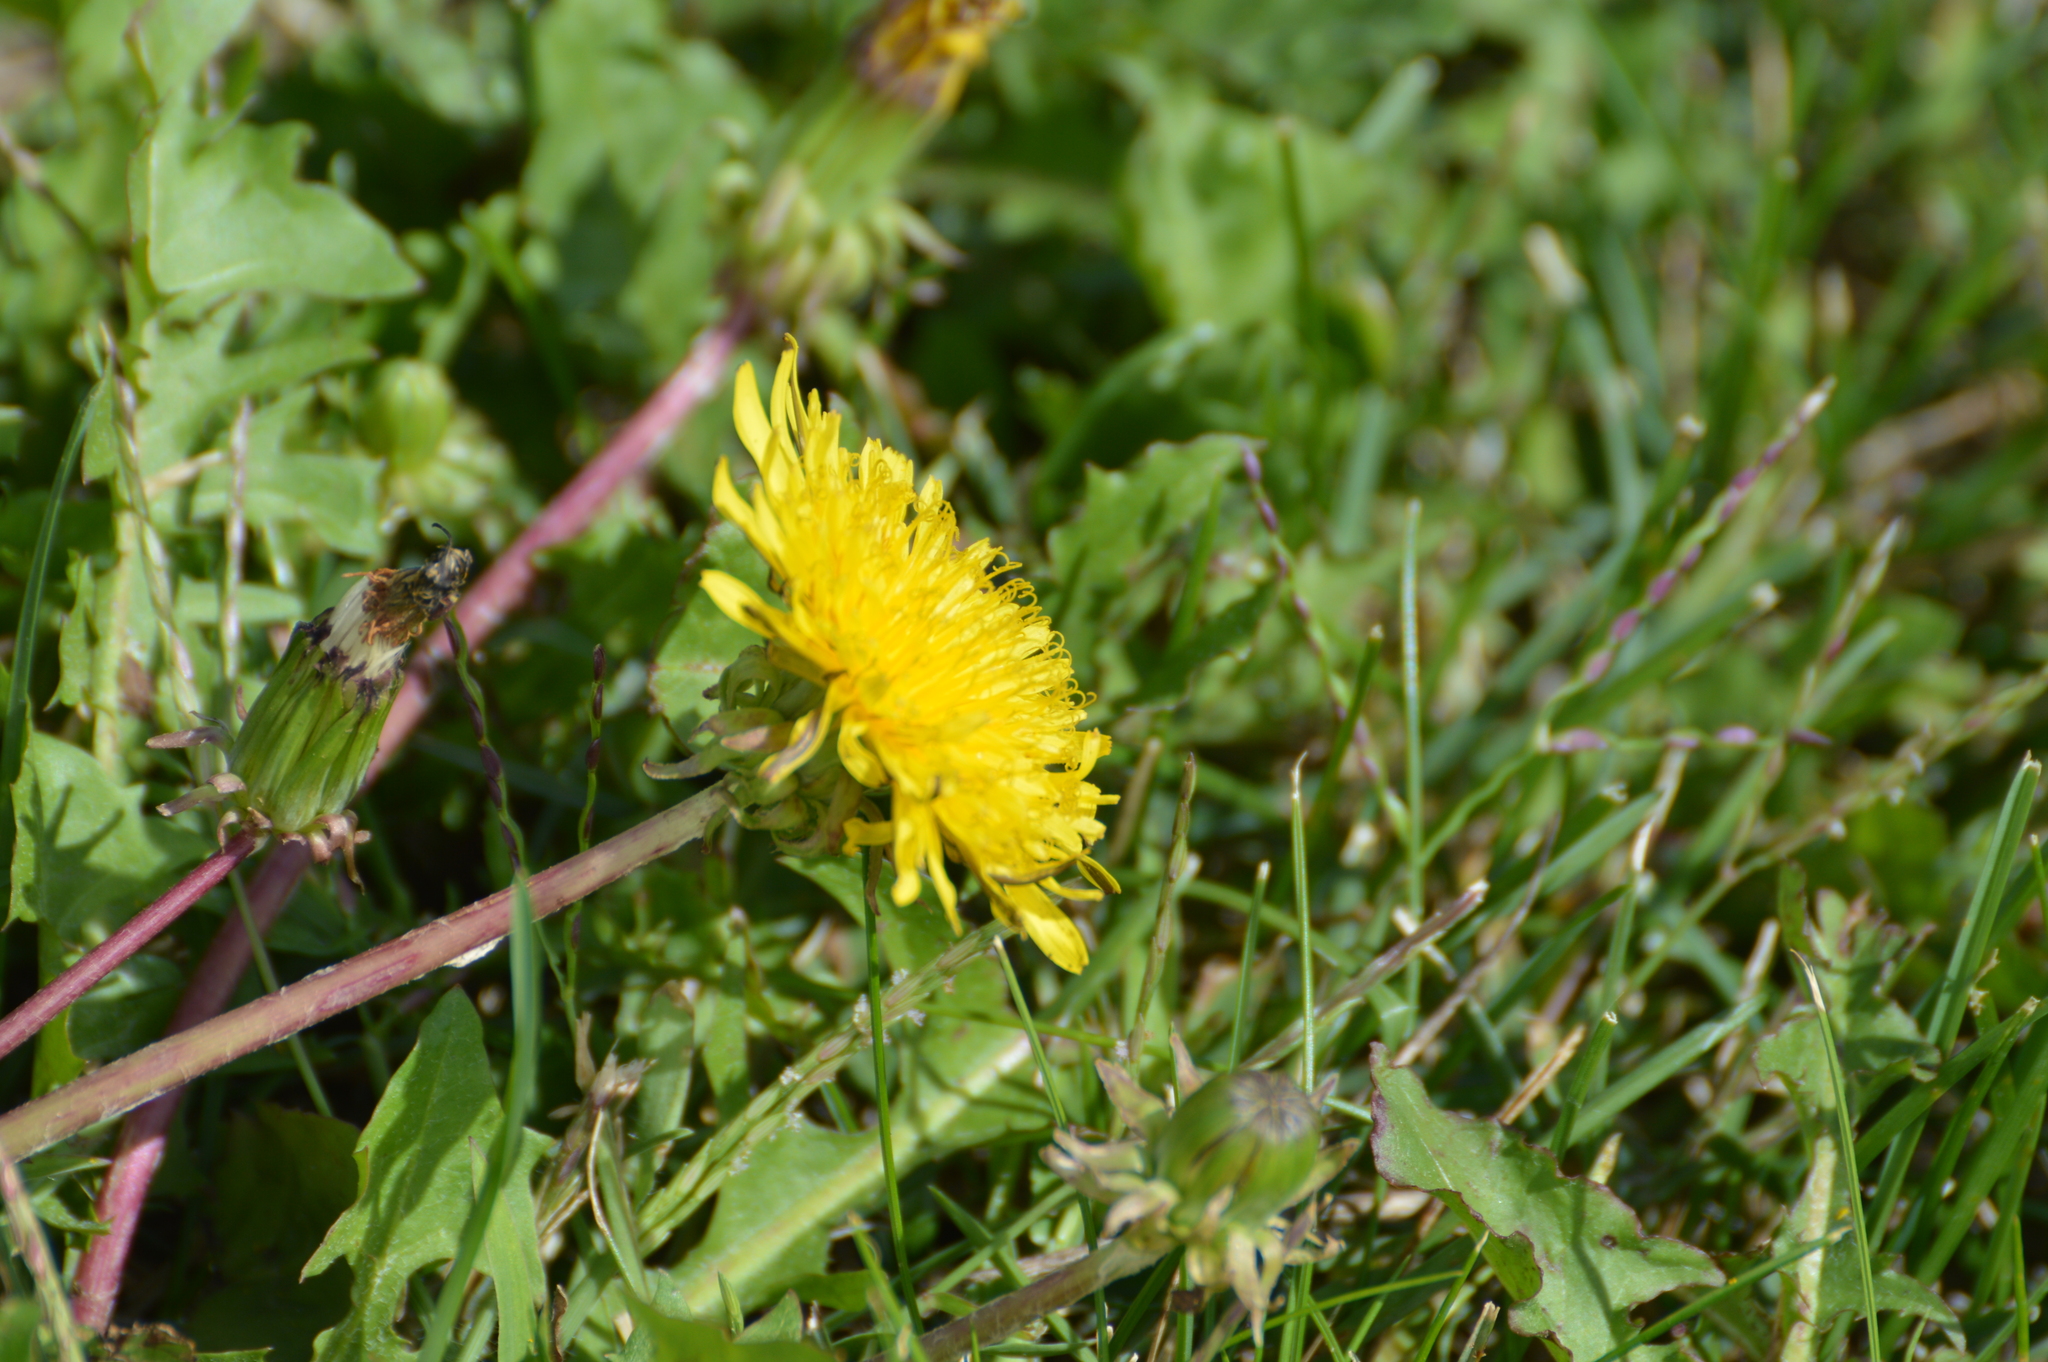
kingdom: Plantae
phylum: Tracheophyta
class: Magnoliopsida
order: Asterales
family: Asteraceae
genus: Taraxacum
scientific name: Taraxacum
